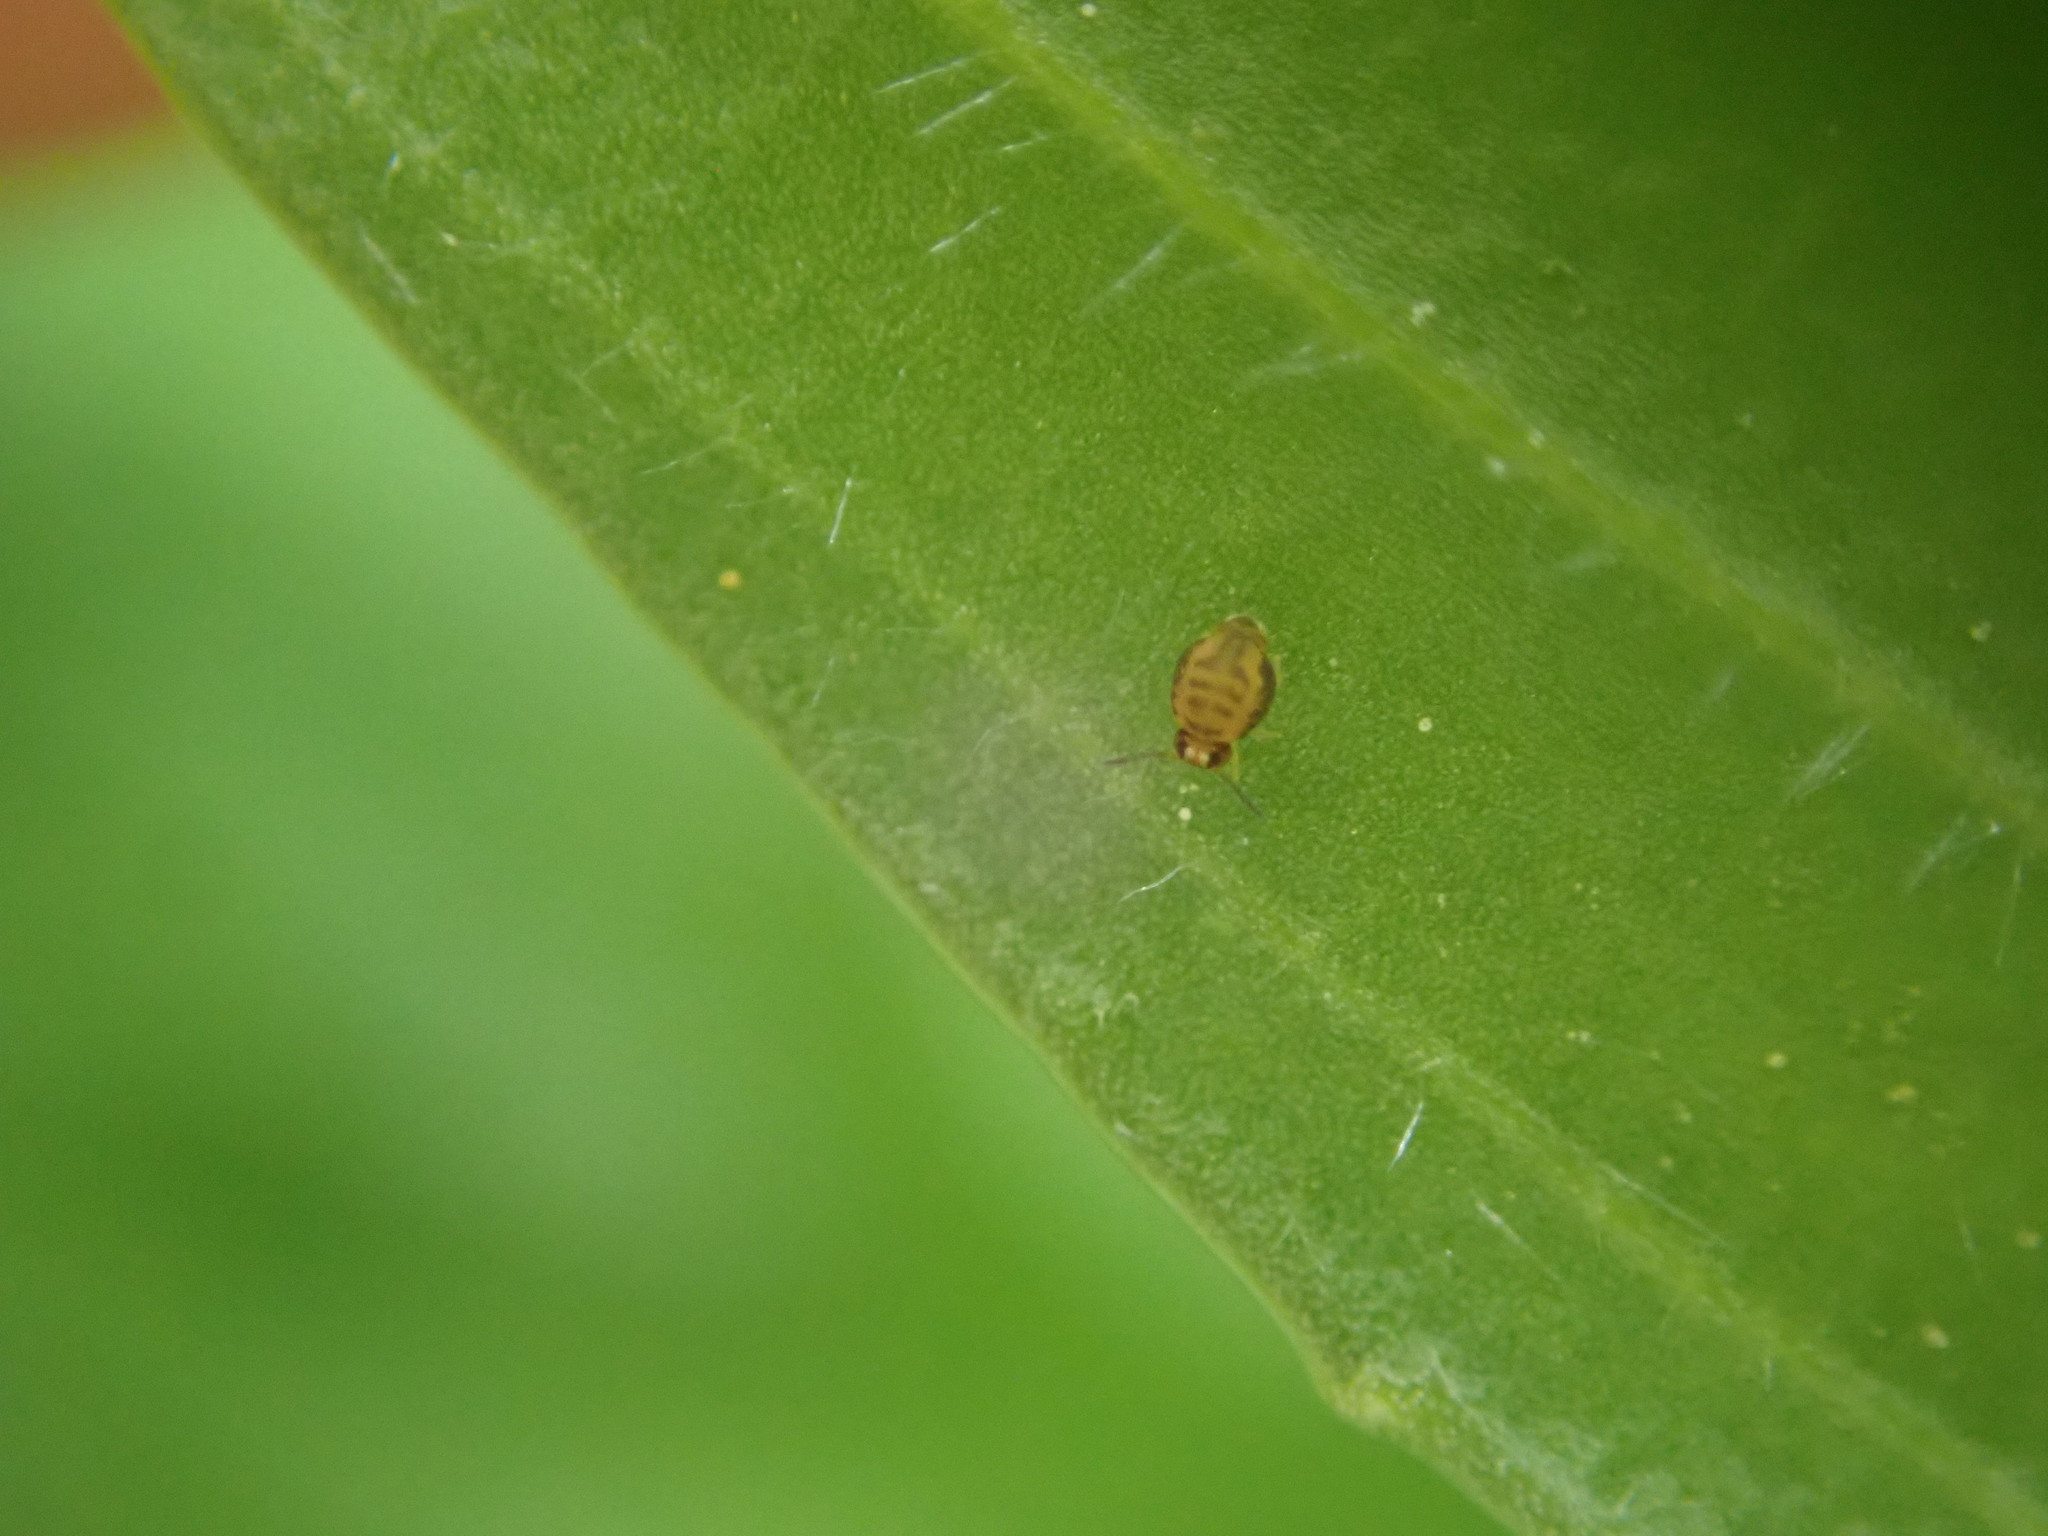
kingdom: Animalia
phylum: Arthropoda
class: Collembola
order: Symphypleona
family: Katiannidae
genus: Sminthurinus
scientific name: Sminthurinus henshawi
